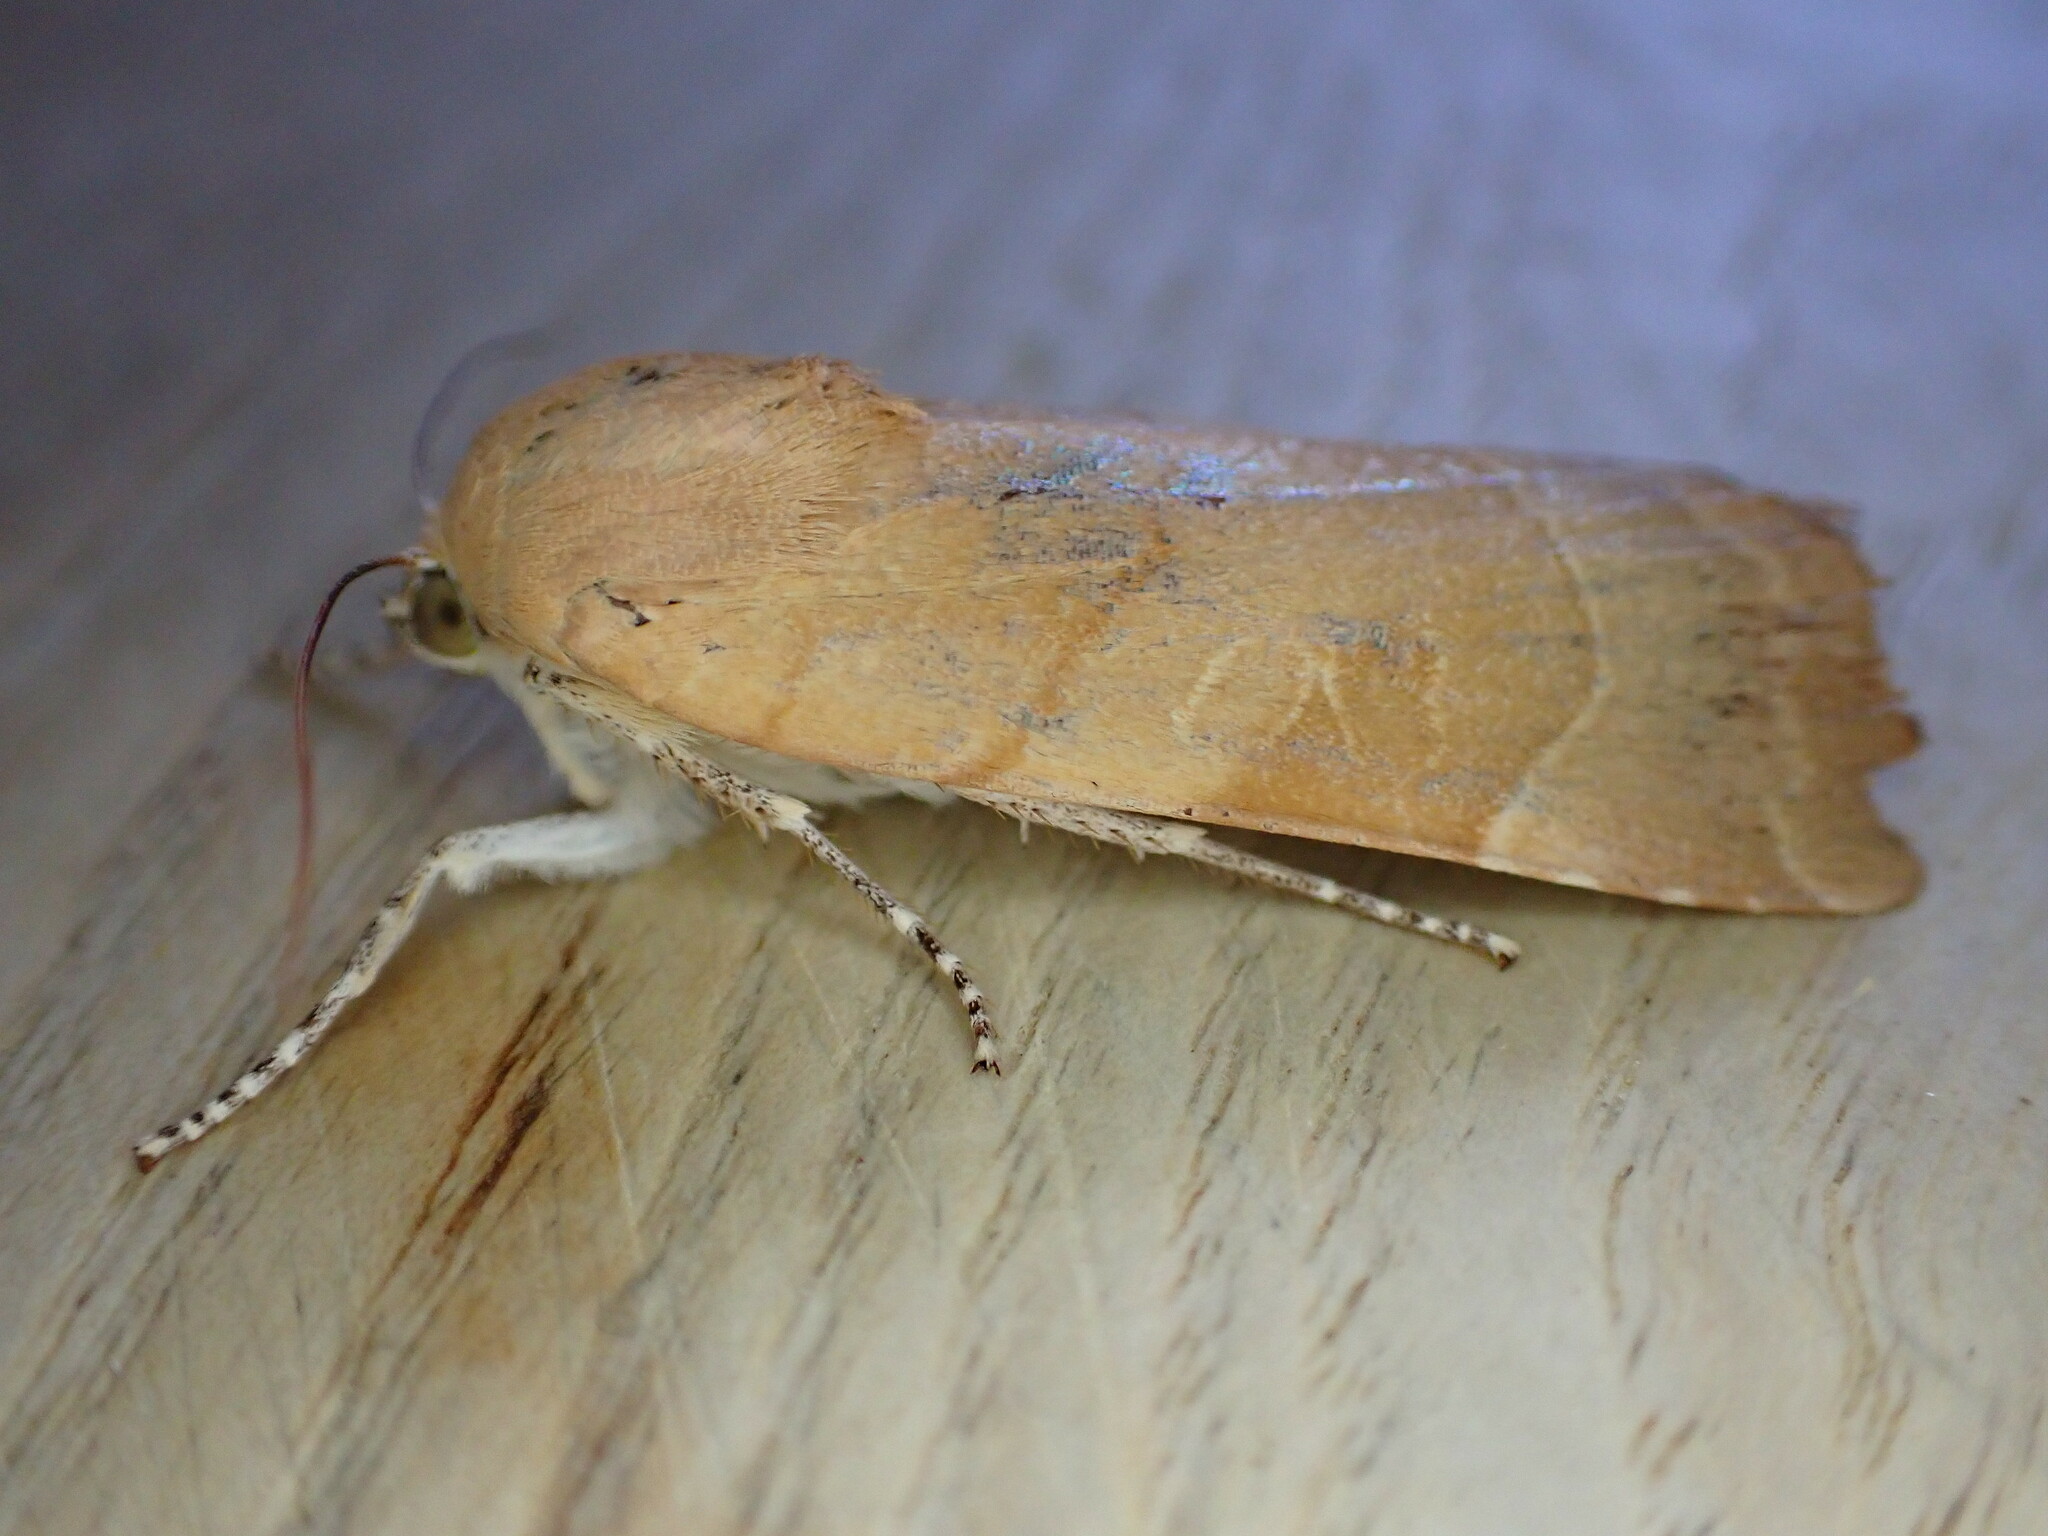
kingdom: Animalia
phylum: Arthropoda
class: Insecta
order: Lepidoptera
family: Noctuidae
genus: Noctua
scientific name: Noctua fimbriata
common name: Broad-bordered yellow underwing
